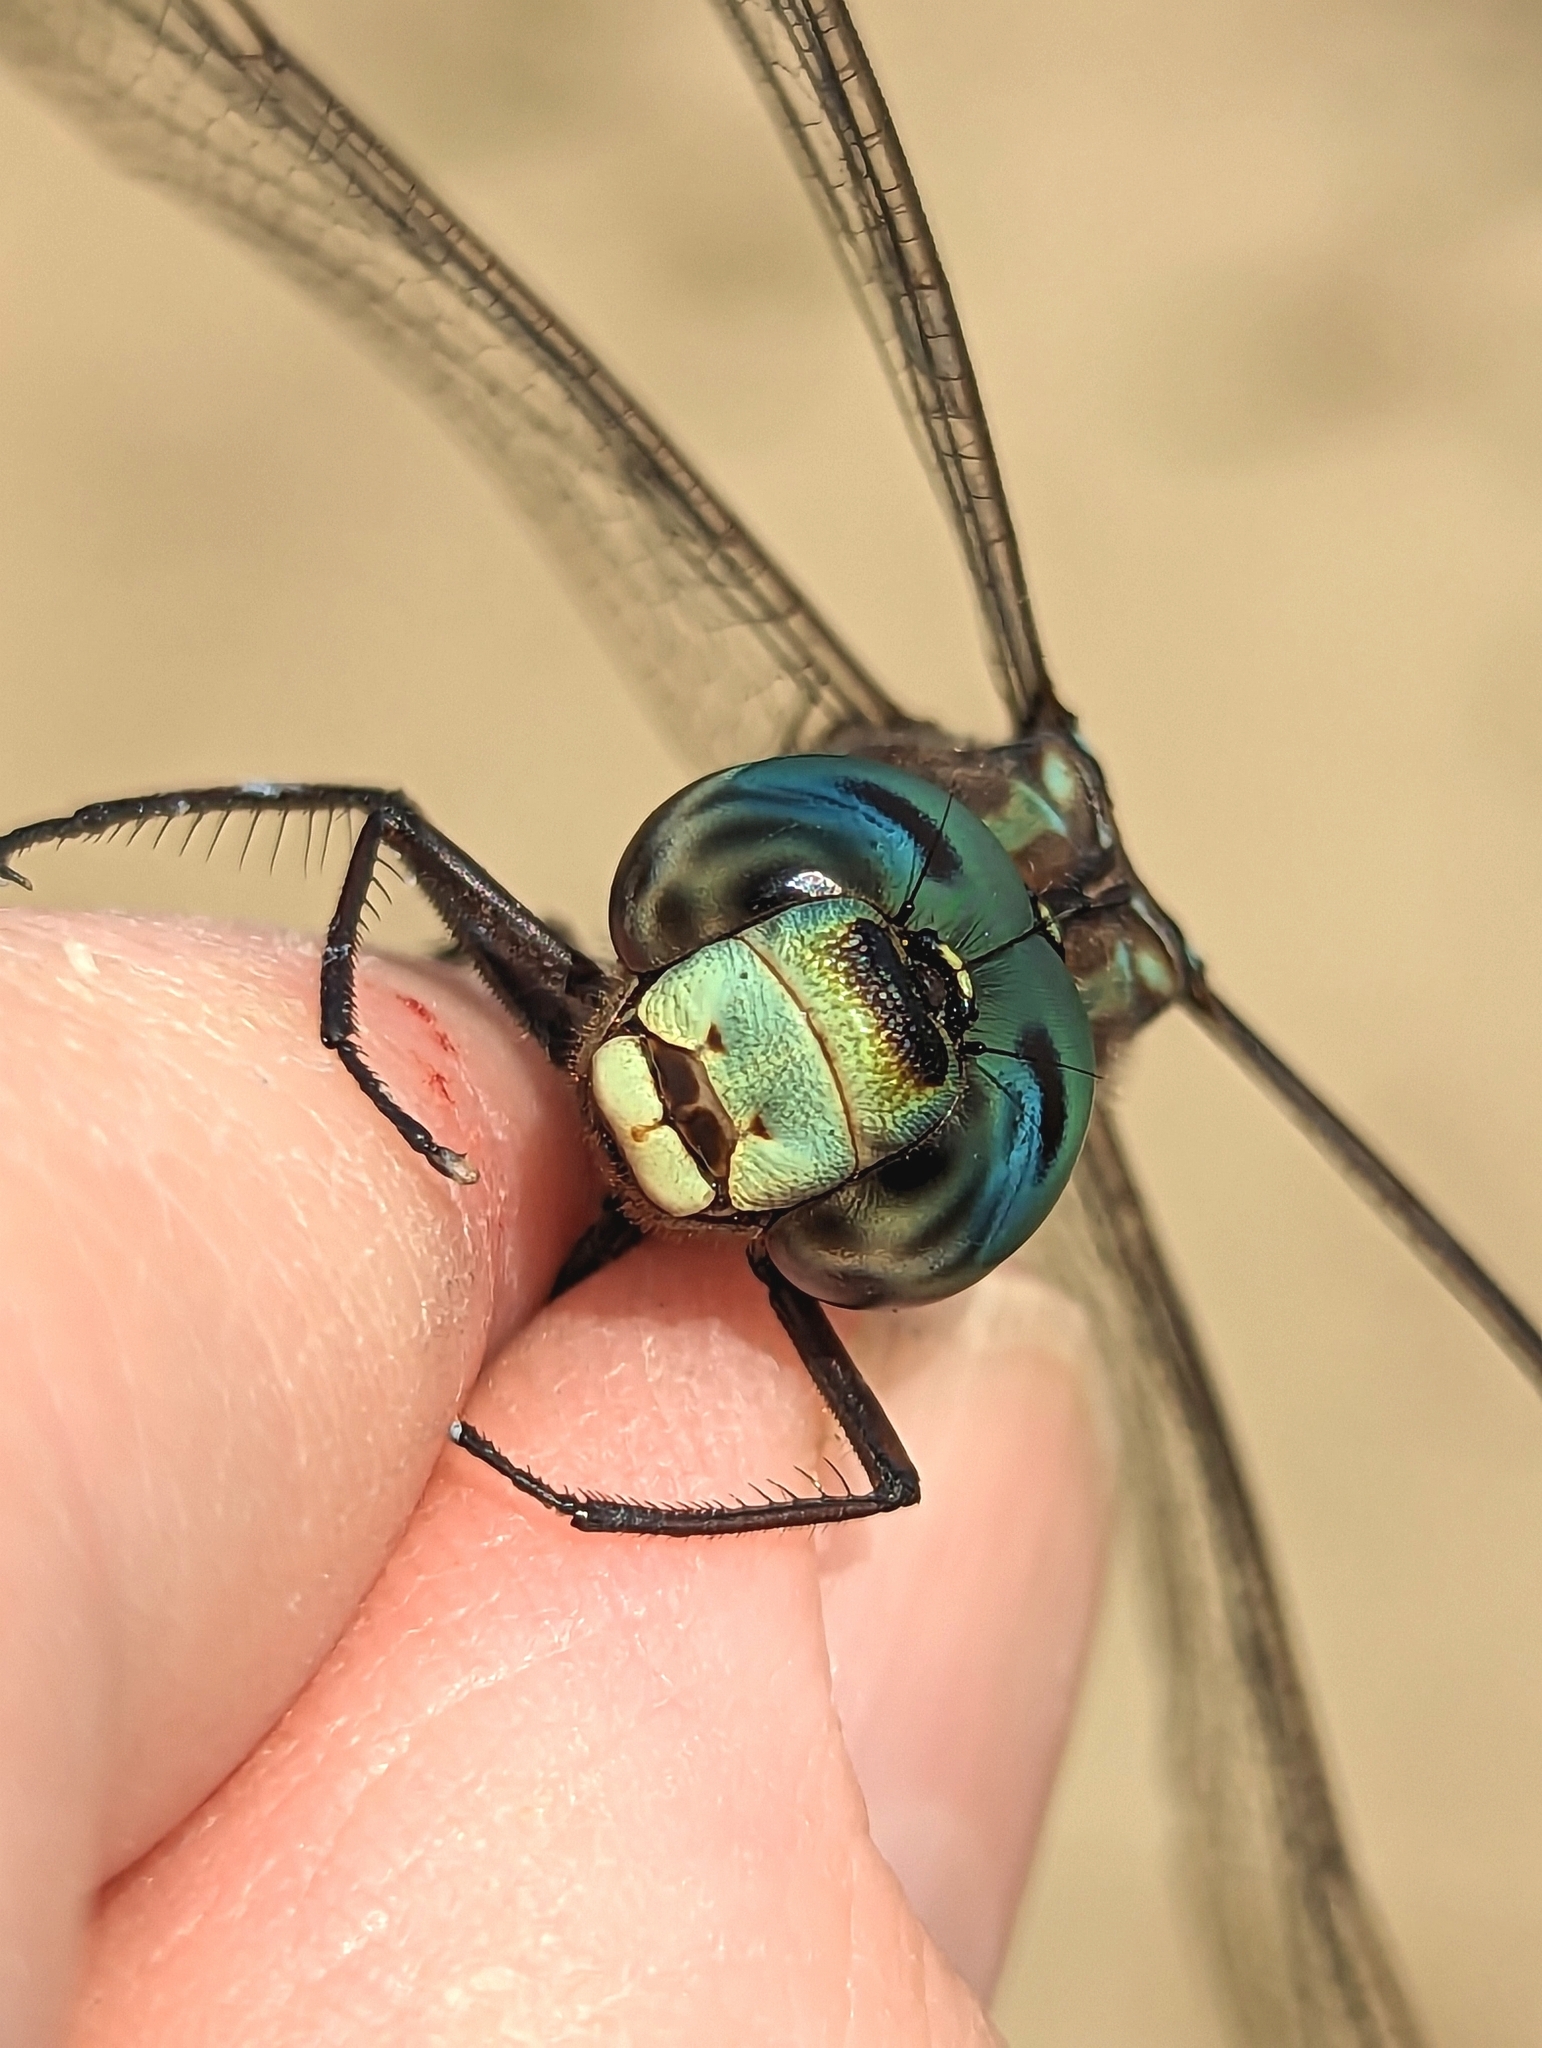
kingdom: Animalia
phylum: Arthropoda
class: Insecta
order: Odonata
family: Aeshnidae
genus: Aeshna
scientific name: Aeshna canadensis
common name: Canada darner
